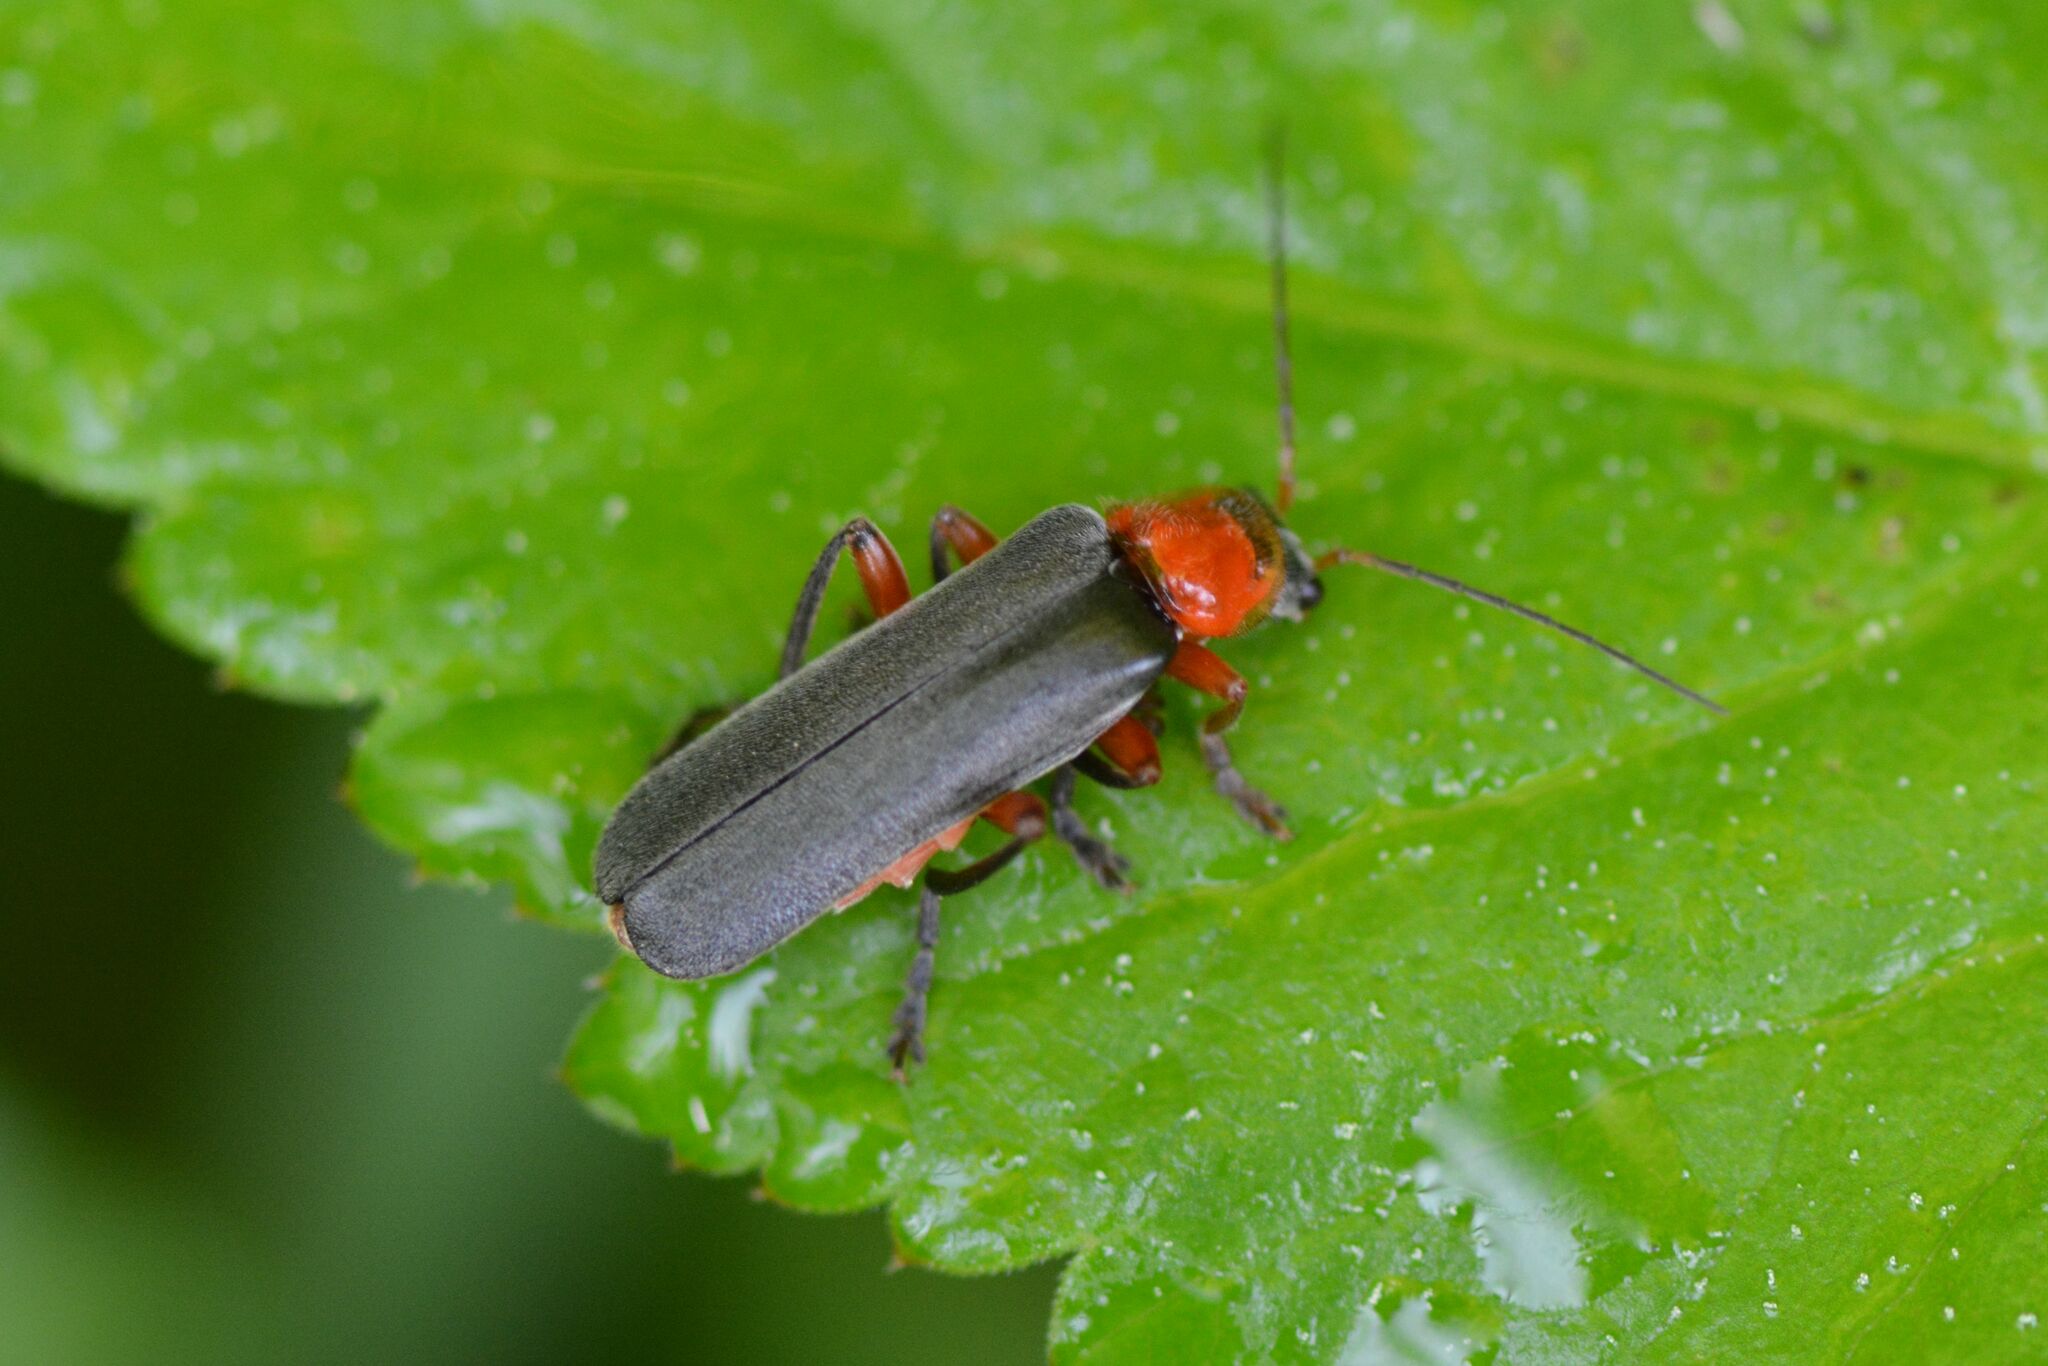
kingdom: Animalia
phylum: Arthropoda
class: Insecta
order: Coleoptera
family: Cantharidae
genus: Cantharis
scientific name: Cantharis pellucida
